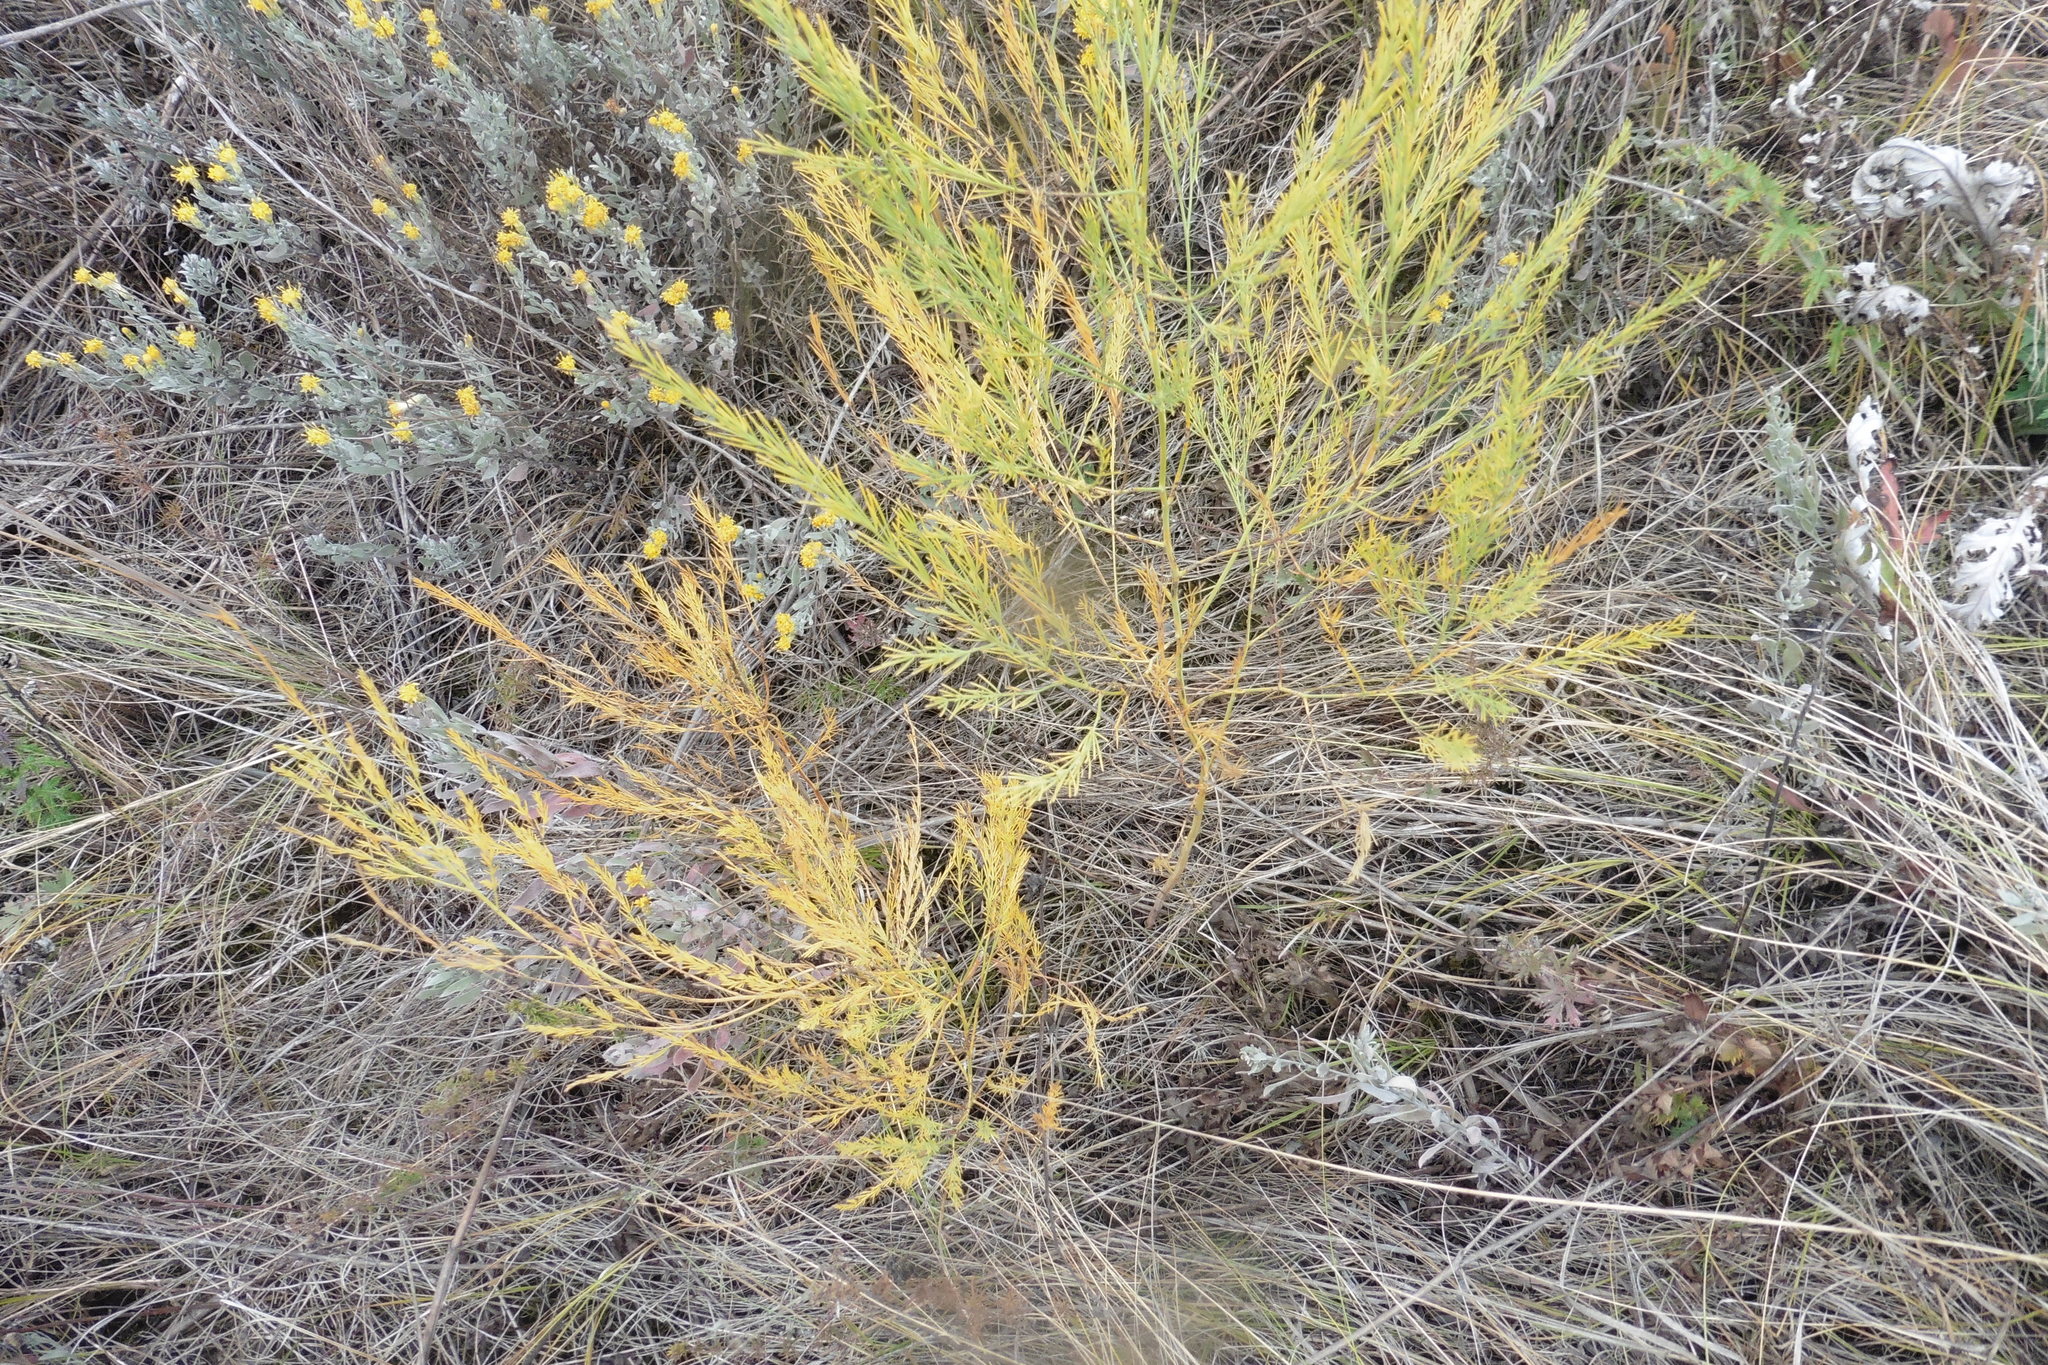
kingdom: Plantae
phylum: Tracheophyta
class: Liliopsida
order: Asparagales
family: Asparagaceae
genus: Asparagus
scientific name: Asparagus officinalis
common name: Garden asparagus
